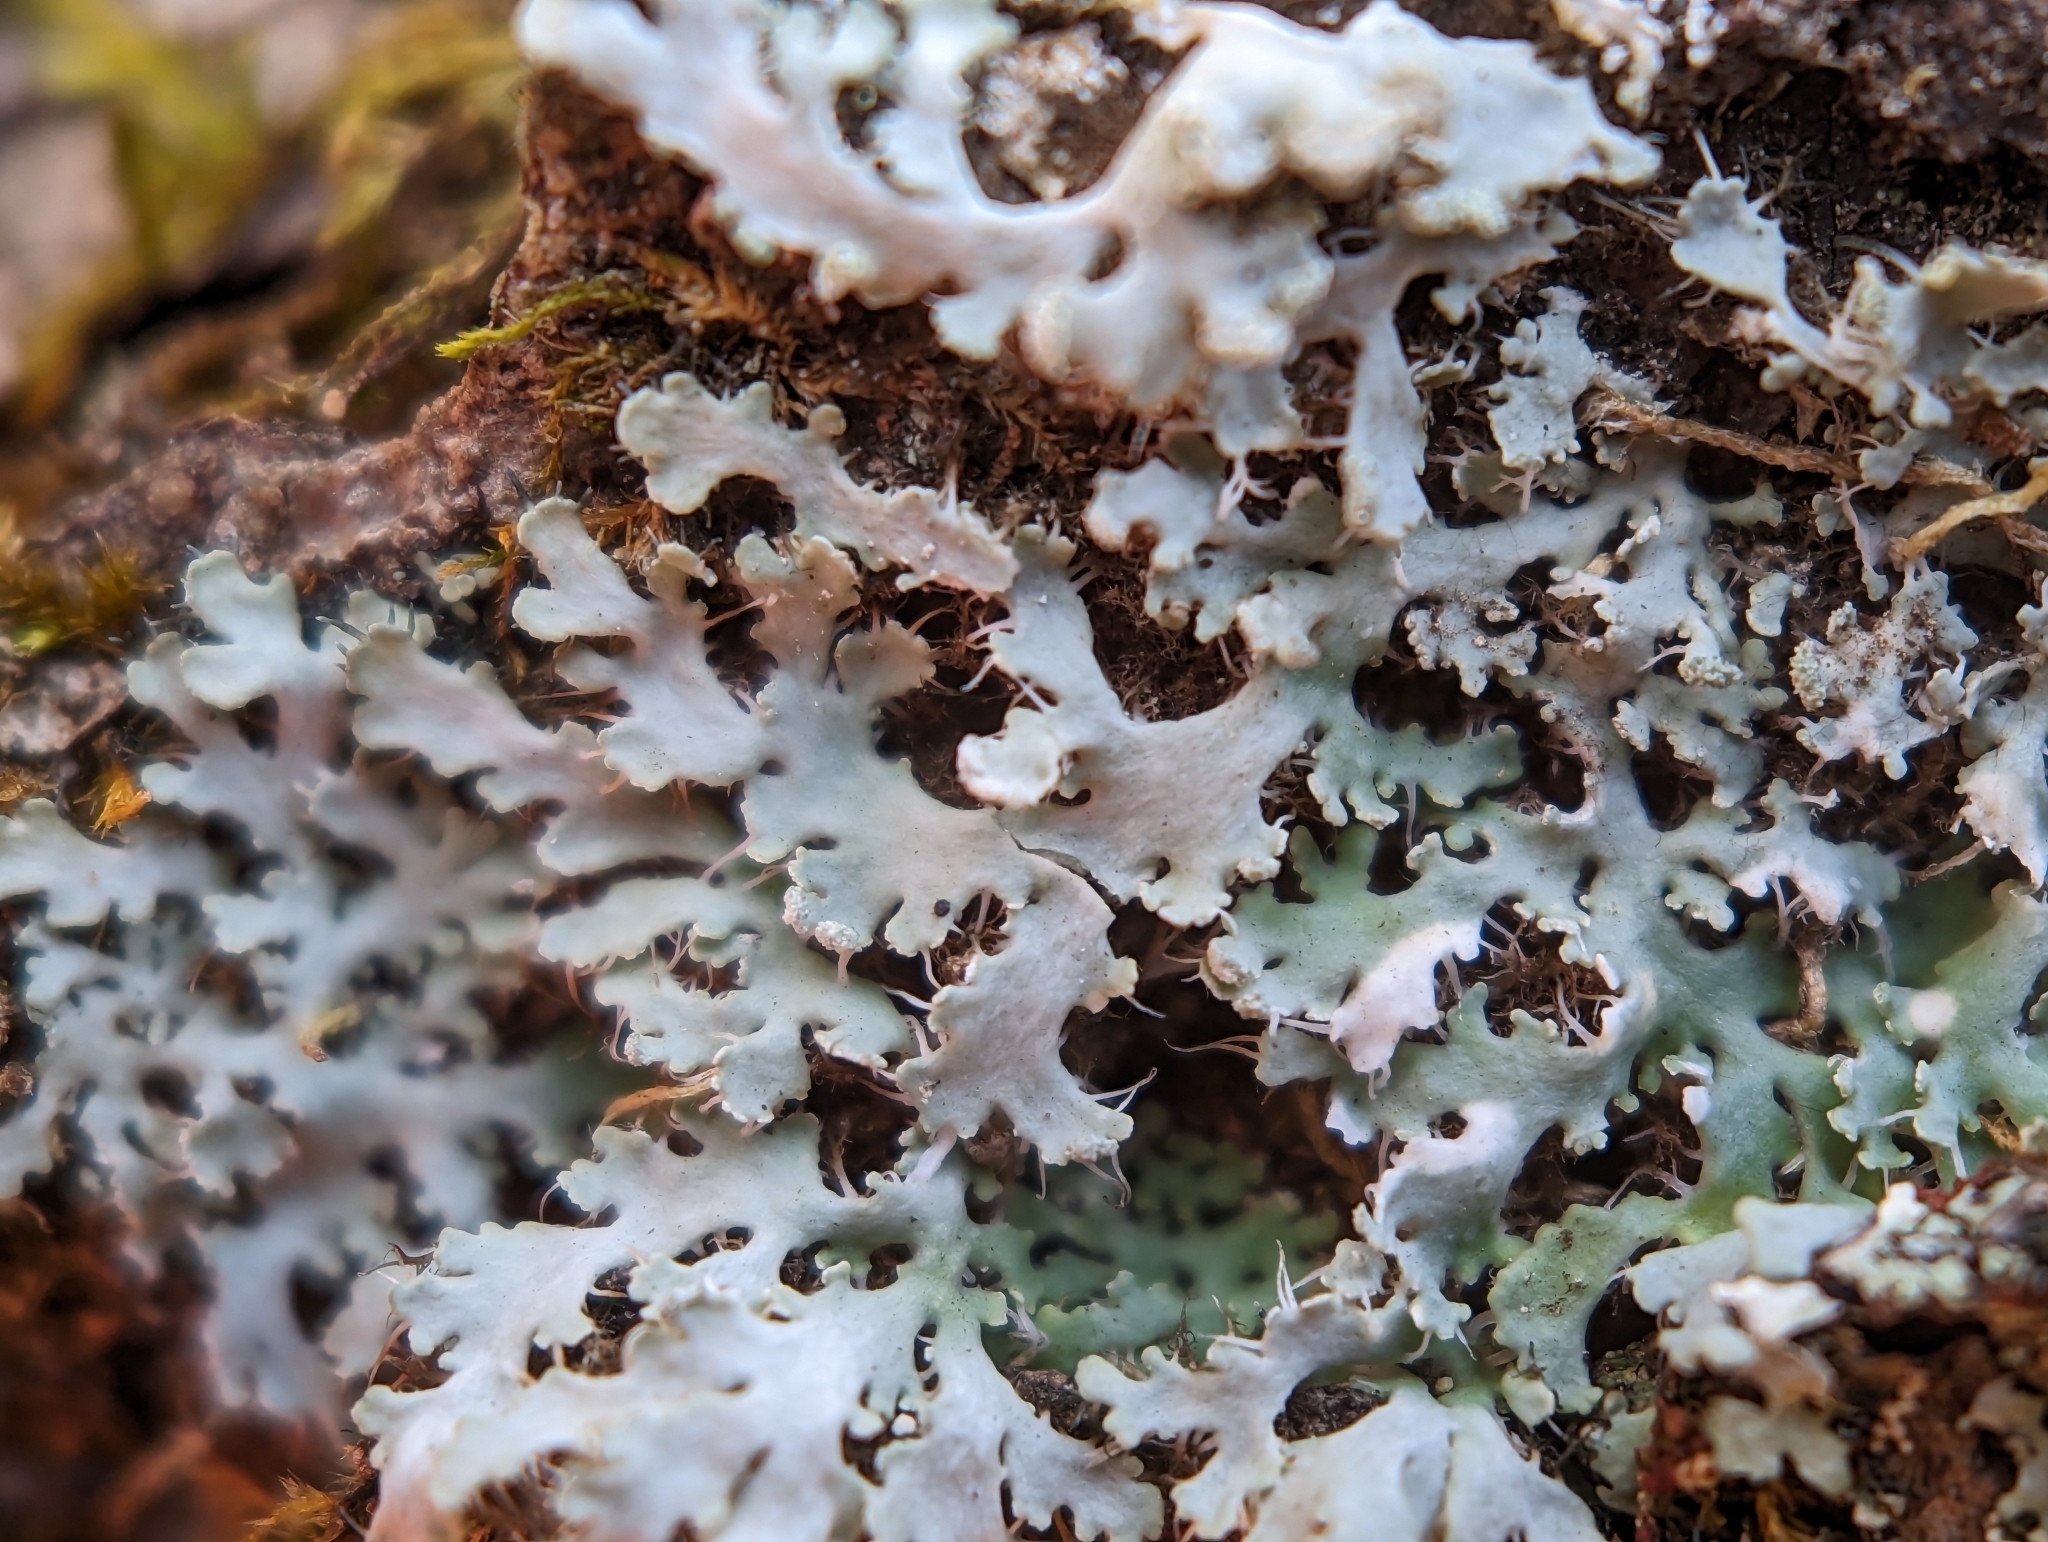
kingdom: Fungi
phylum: Ascomycota
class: Lecanoromycetes
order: Caliciales
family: Physciaceae
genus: Heterodermia
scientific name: Heterodermia speciosa
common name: Powdered fringe lichen
